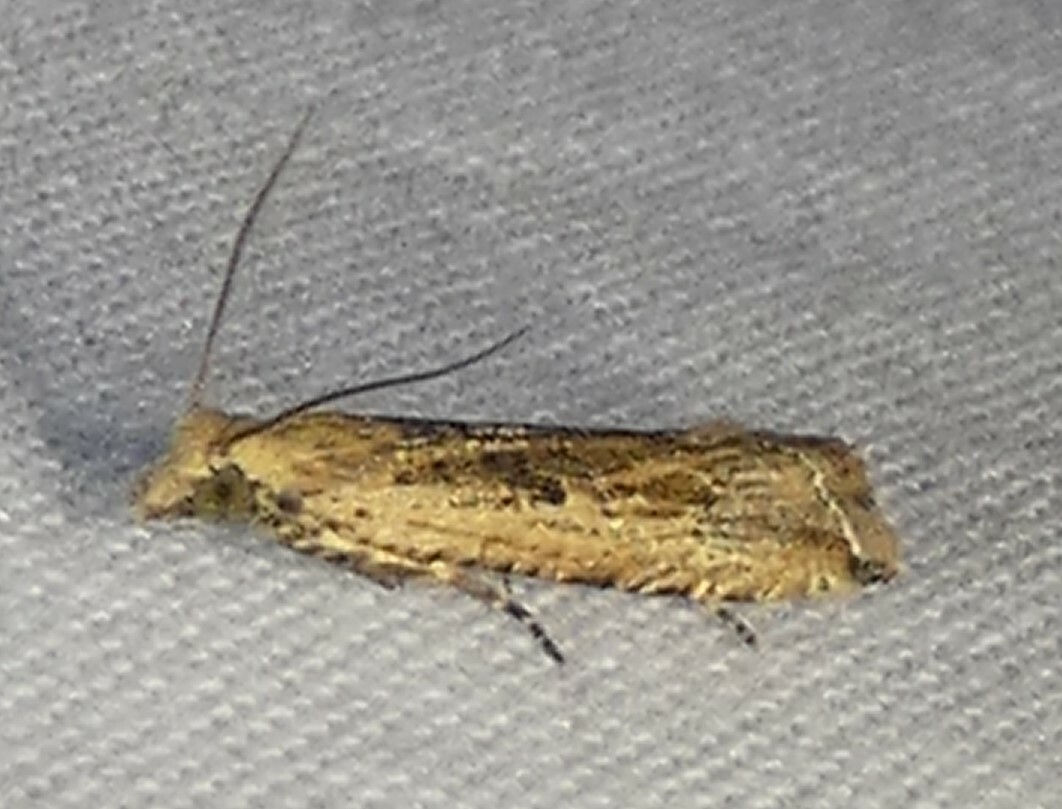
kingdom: Animalia
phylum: Arthropoda
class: Insecta
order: Lepidoptera
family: Tortricidae
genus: Bactra
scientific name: Bactra verutana
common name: Javelin moth
